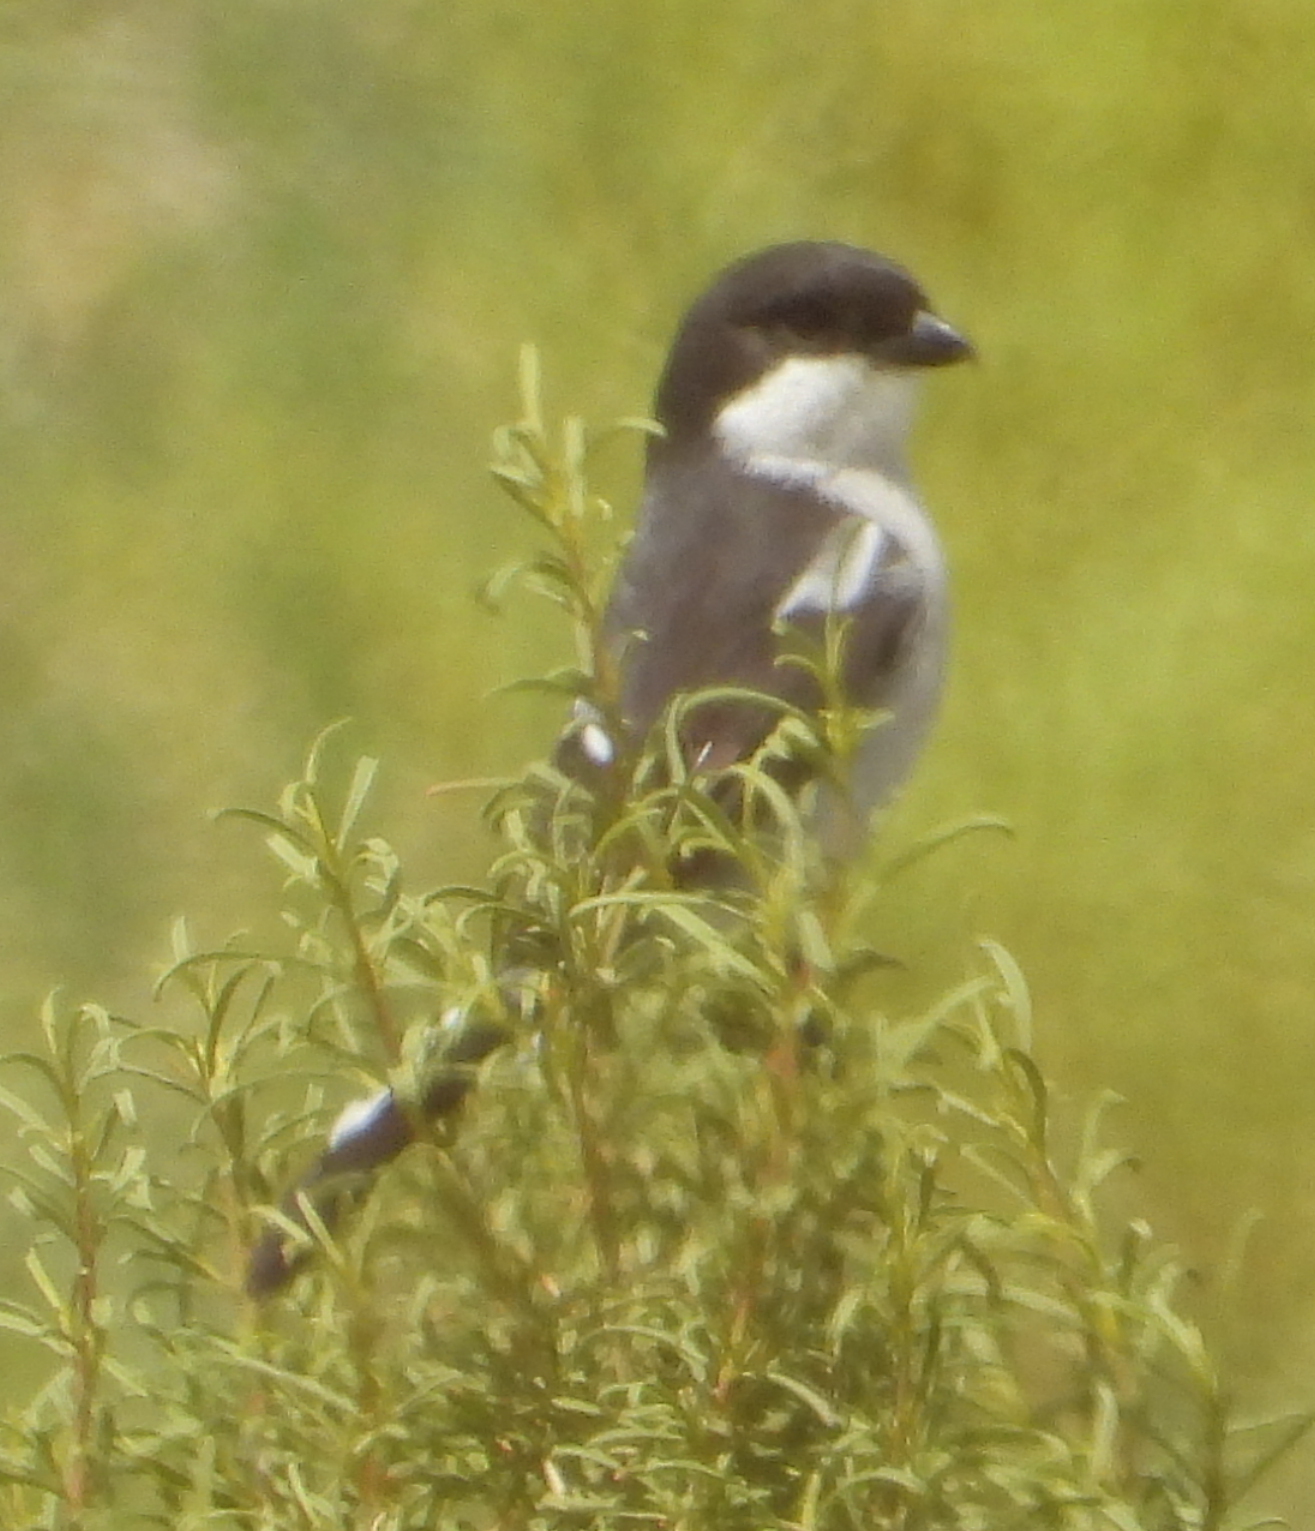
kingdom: Animalia
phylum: Chordata
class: Aves
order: Passeriformes
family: Laniidae
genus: Lanius
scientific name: Lanius collaris
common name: Southern fiscal
